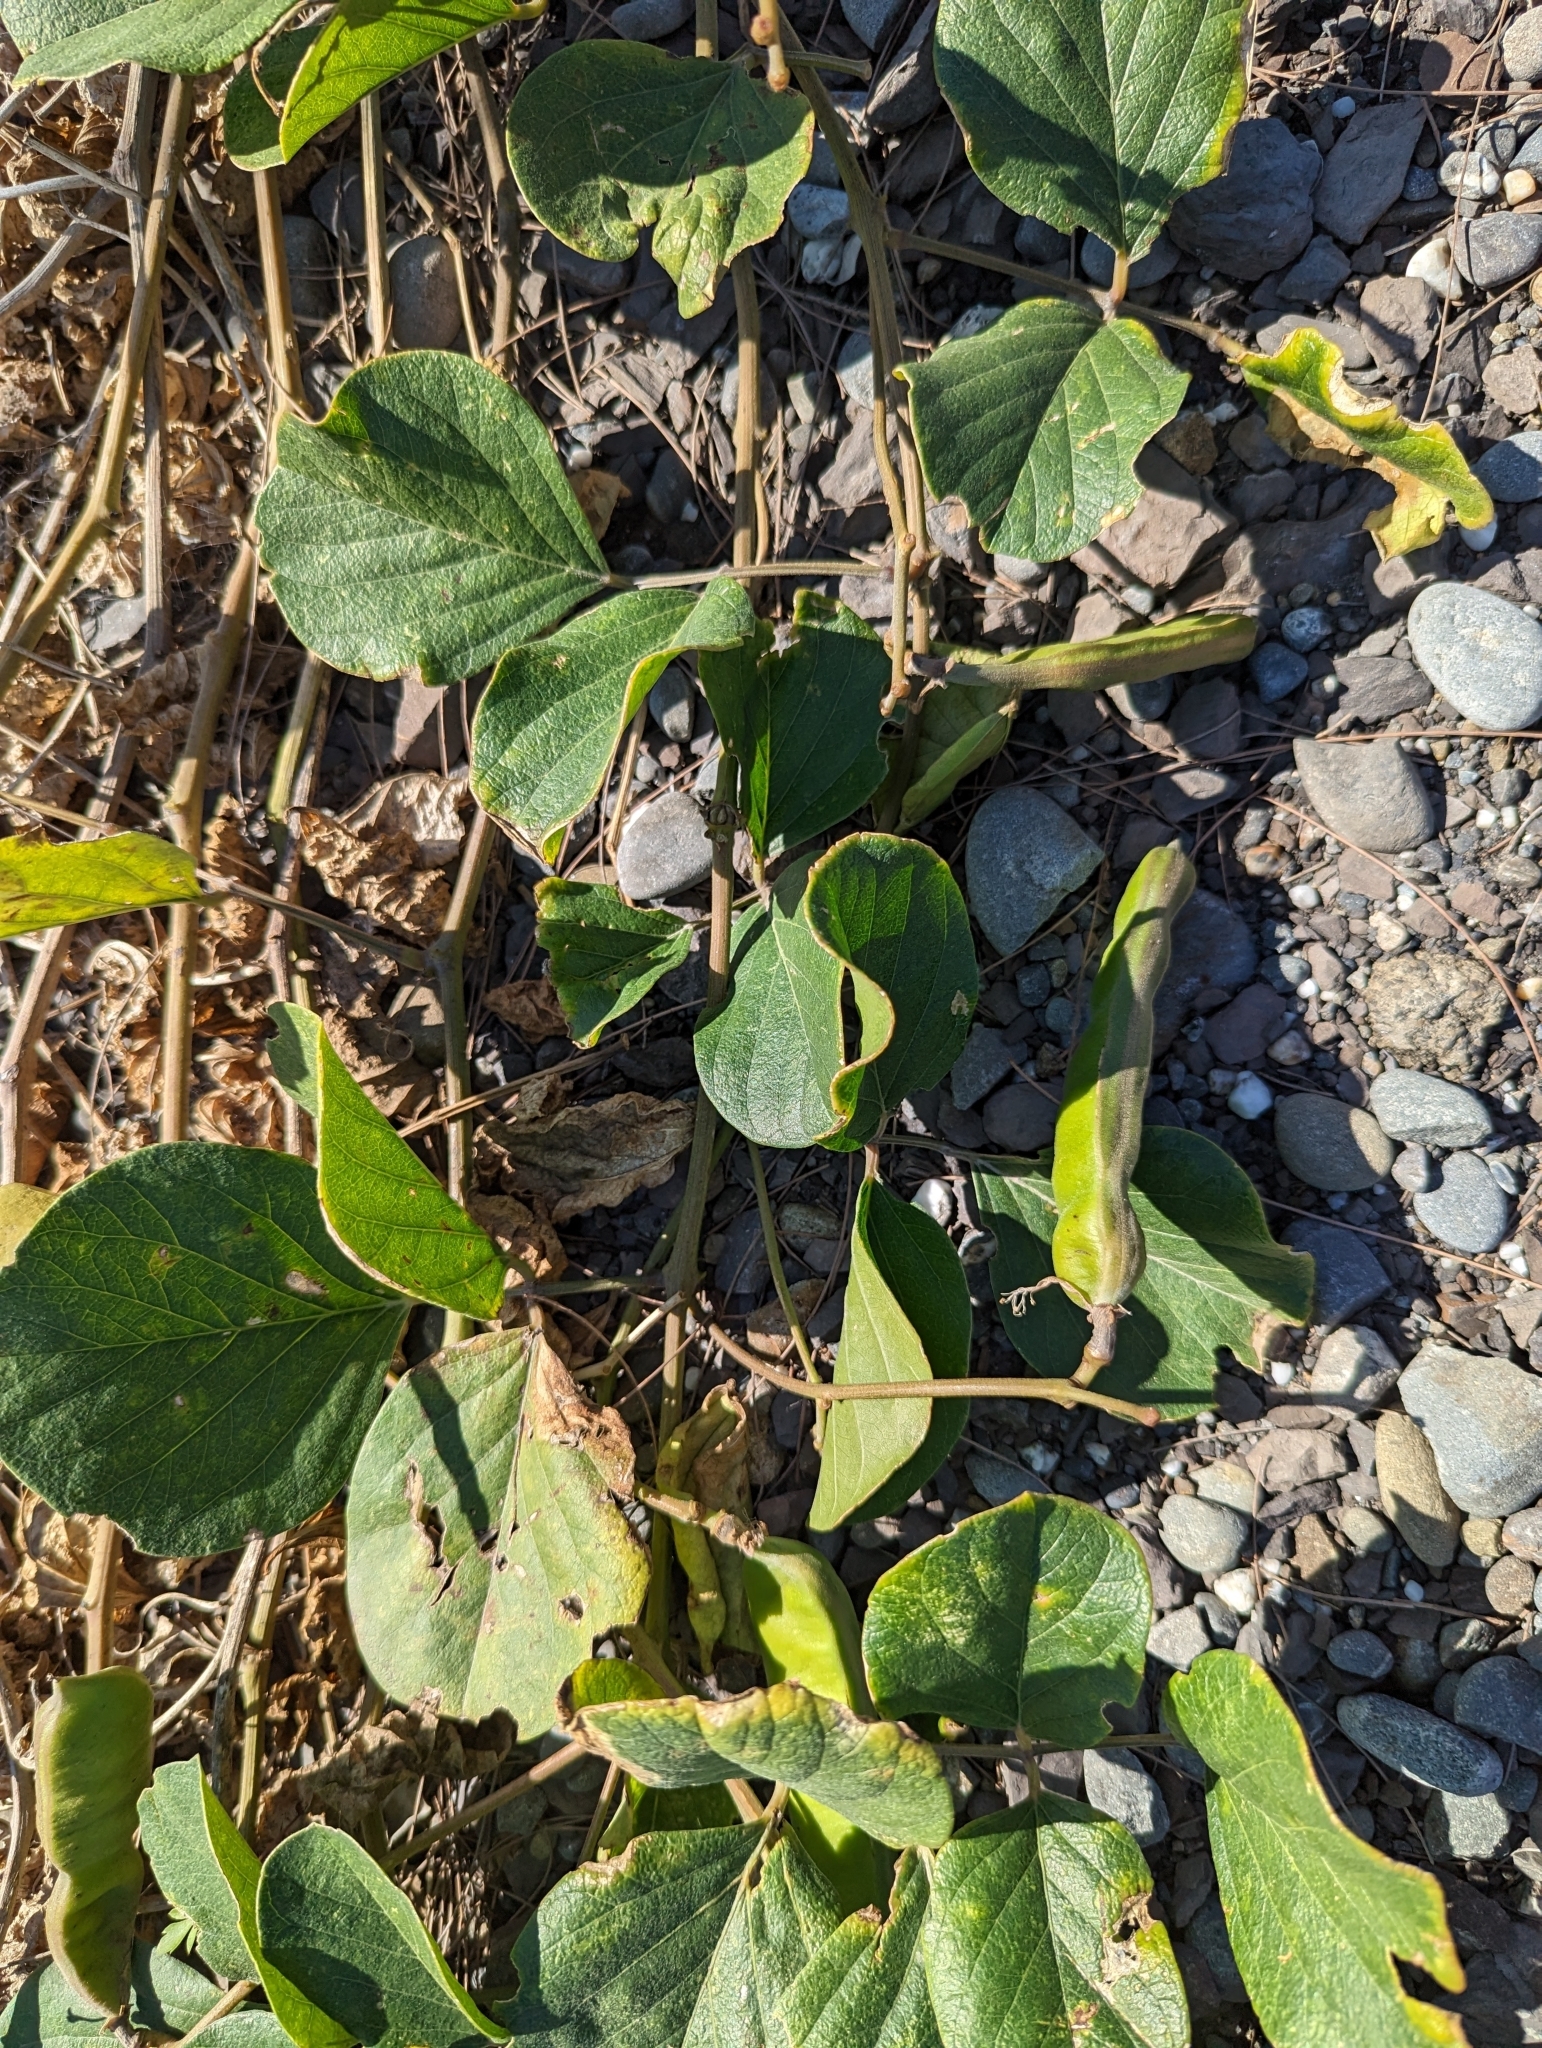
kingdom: Plantae
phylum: Tracheophyta
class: Magnoliopsida
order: Fabales
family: Fabaceae
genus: Canavalia
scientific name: Canavalia rosea
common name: Beach-bean
